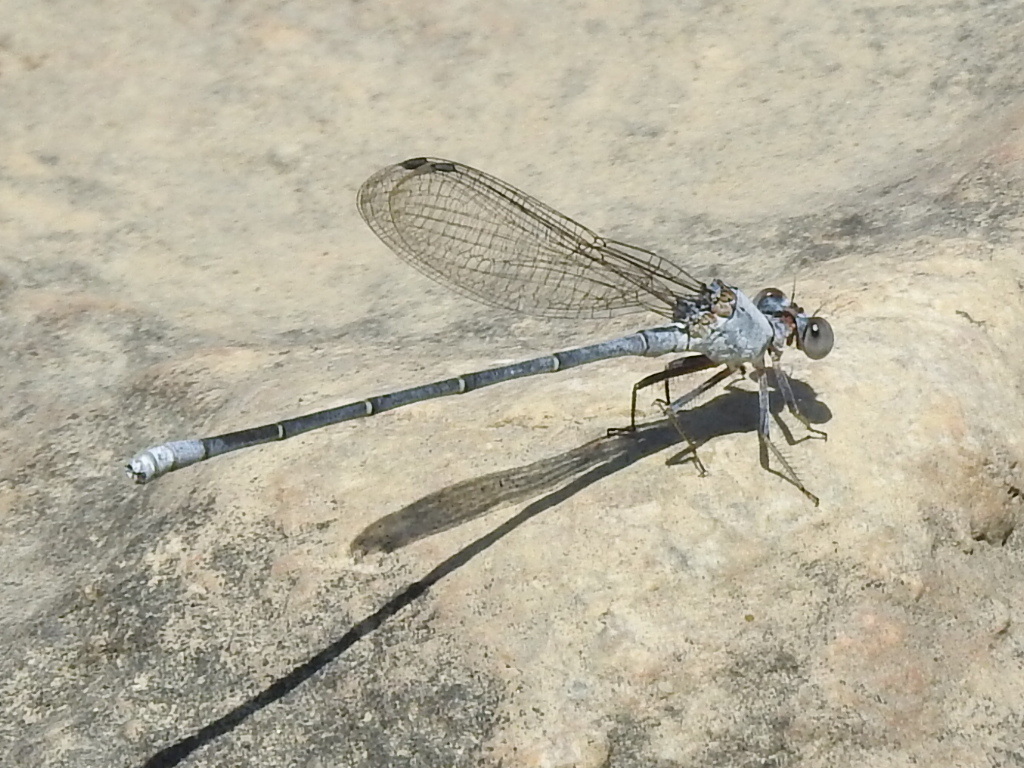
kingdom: Animalia
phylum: Arthropoda
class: Insecta
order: Odonata
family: Coenagrionidae
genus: Argia
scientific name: Argia moesta
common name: Powdered dancer
